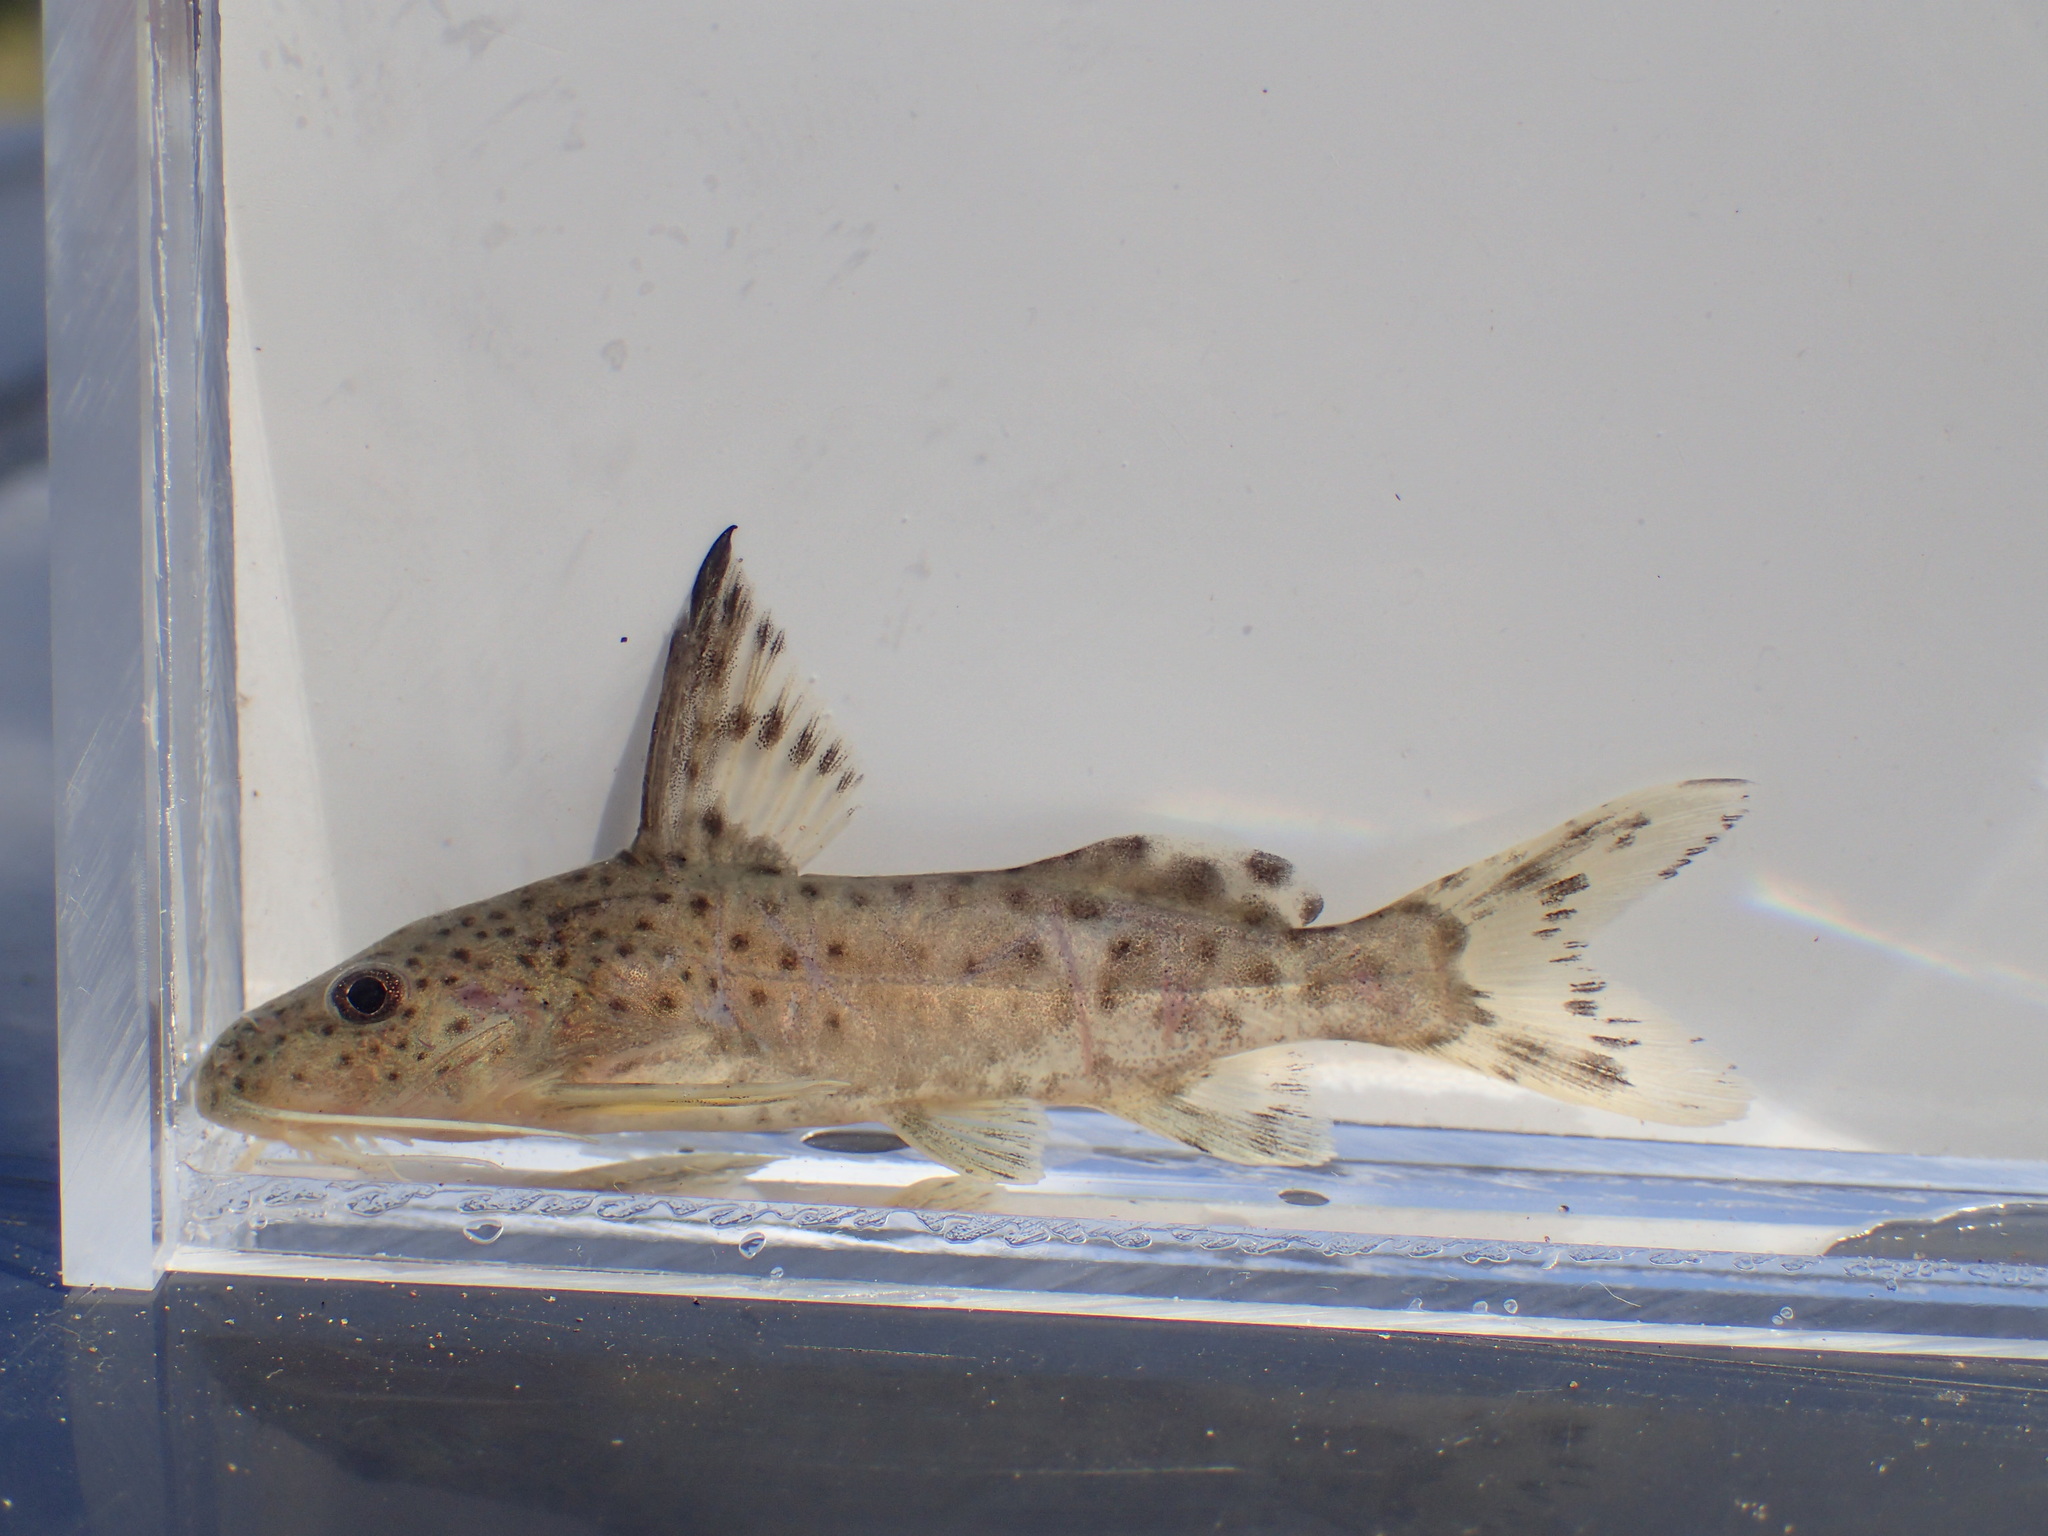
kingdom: Animalia
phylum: Chordata
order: Siluriformes
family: Mochokidae
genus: Synodontis
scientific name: Synodontis zambezensis
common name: Brown squeaker
